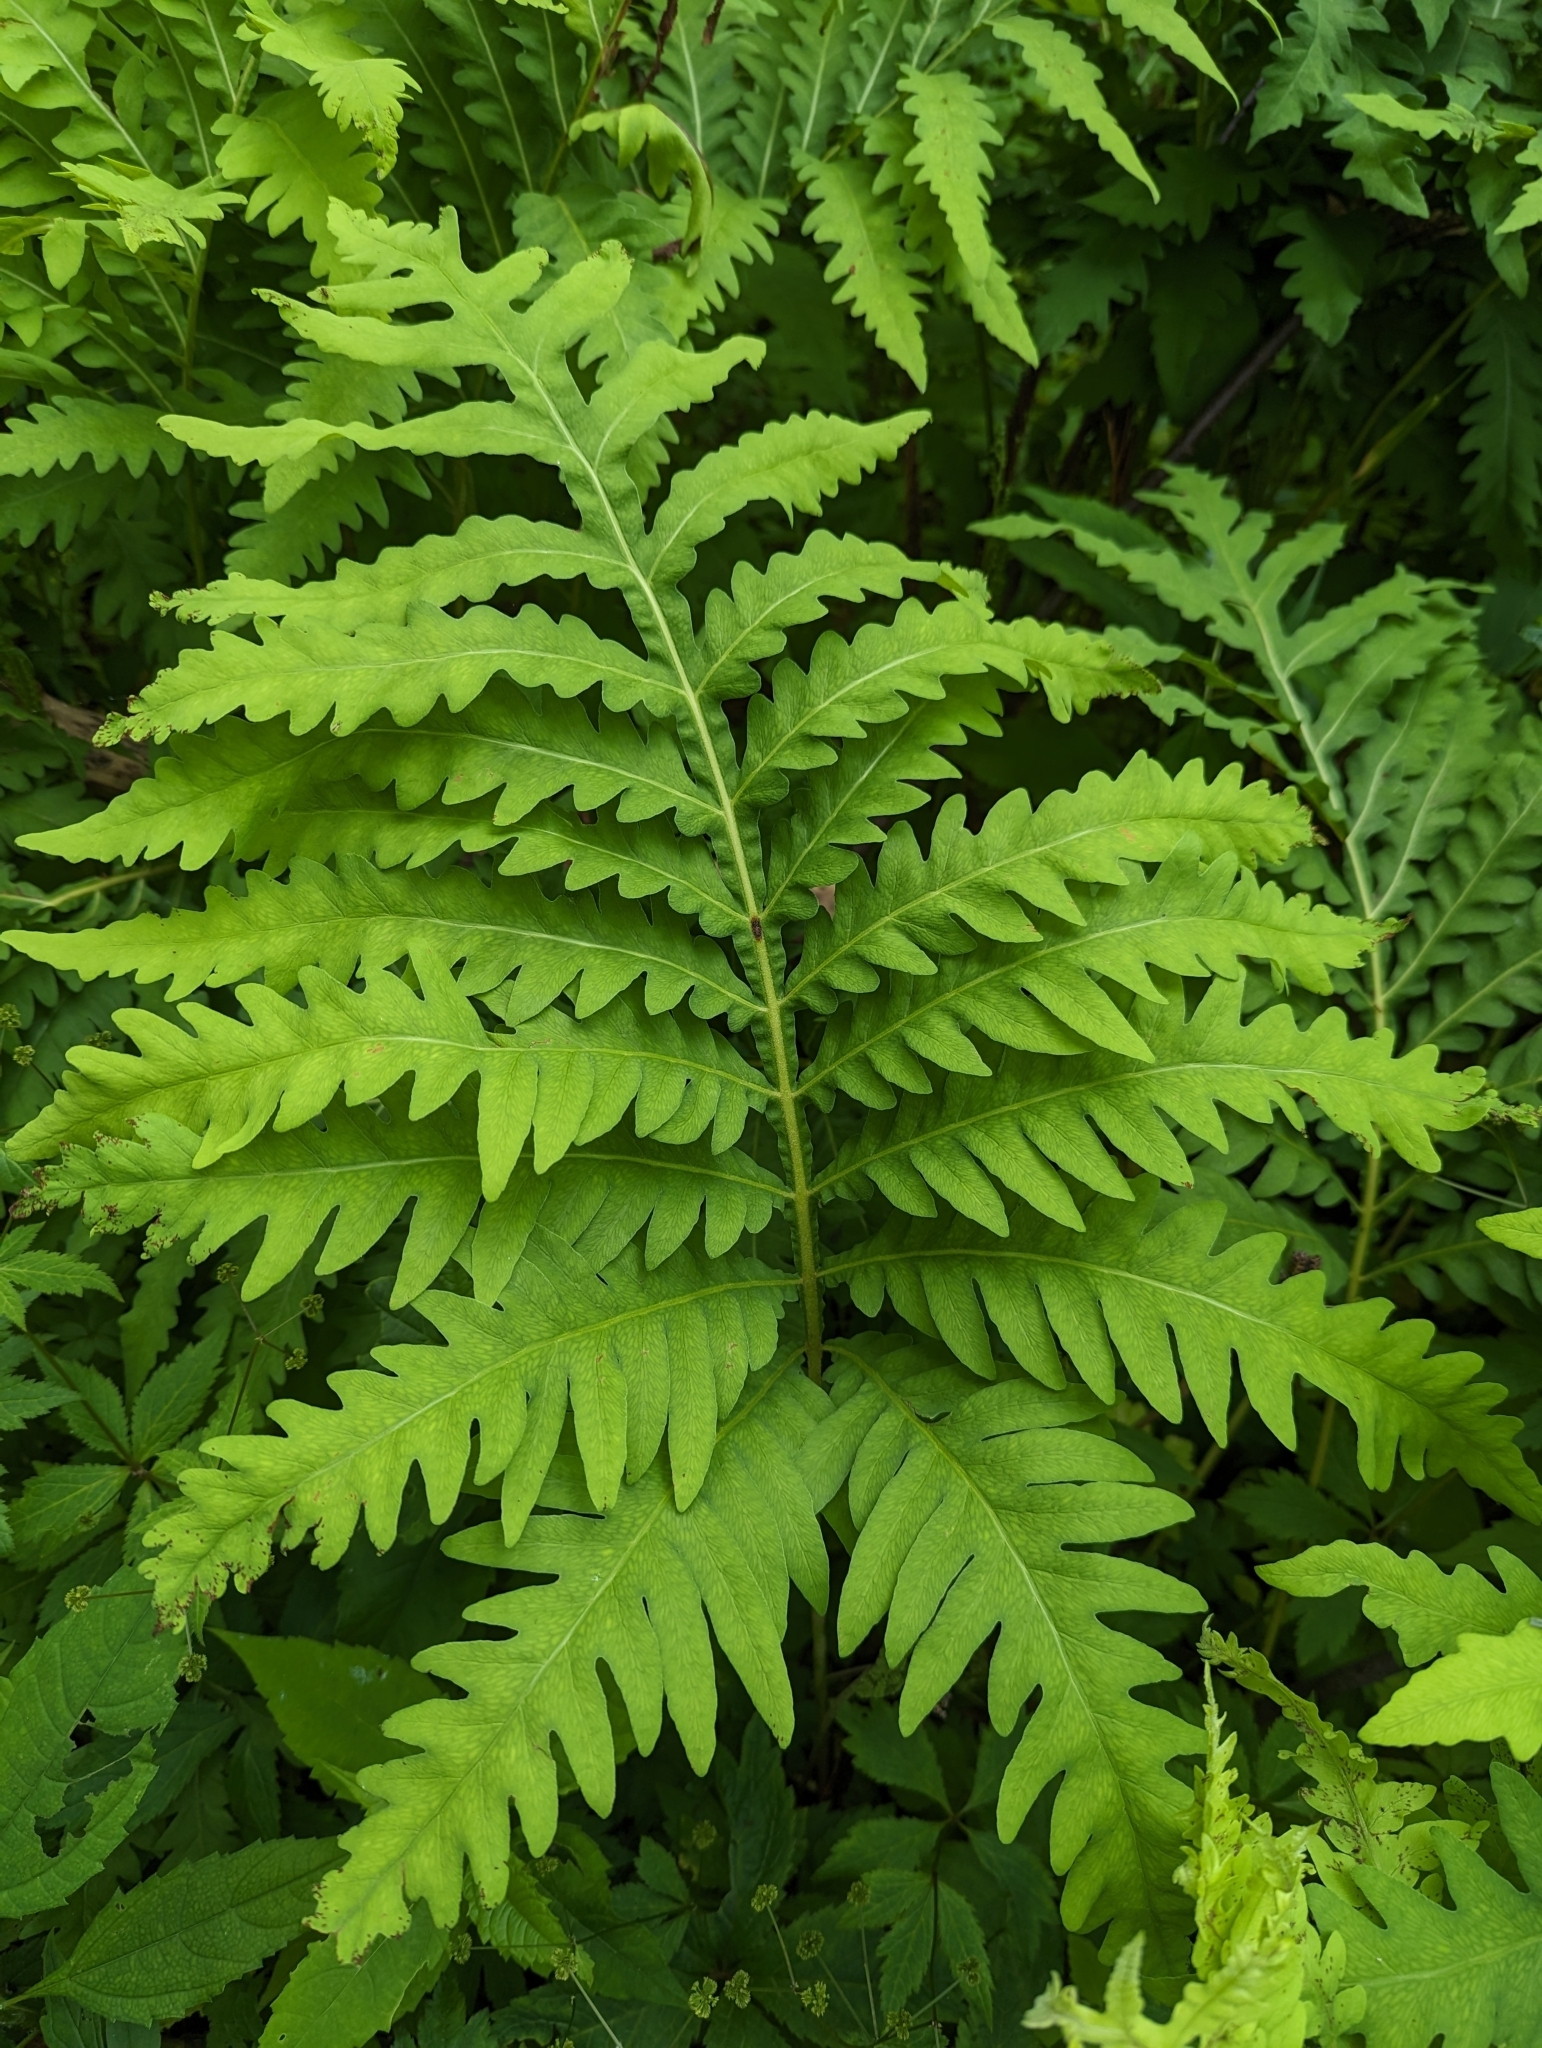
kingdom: Plantae
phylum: Tracheophyta
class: Polypodiopsida
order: Polypodiales
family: Onocleaceae
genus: Onoclea
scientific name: Onoclea sensibilis
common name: Sensitive fern
